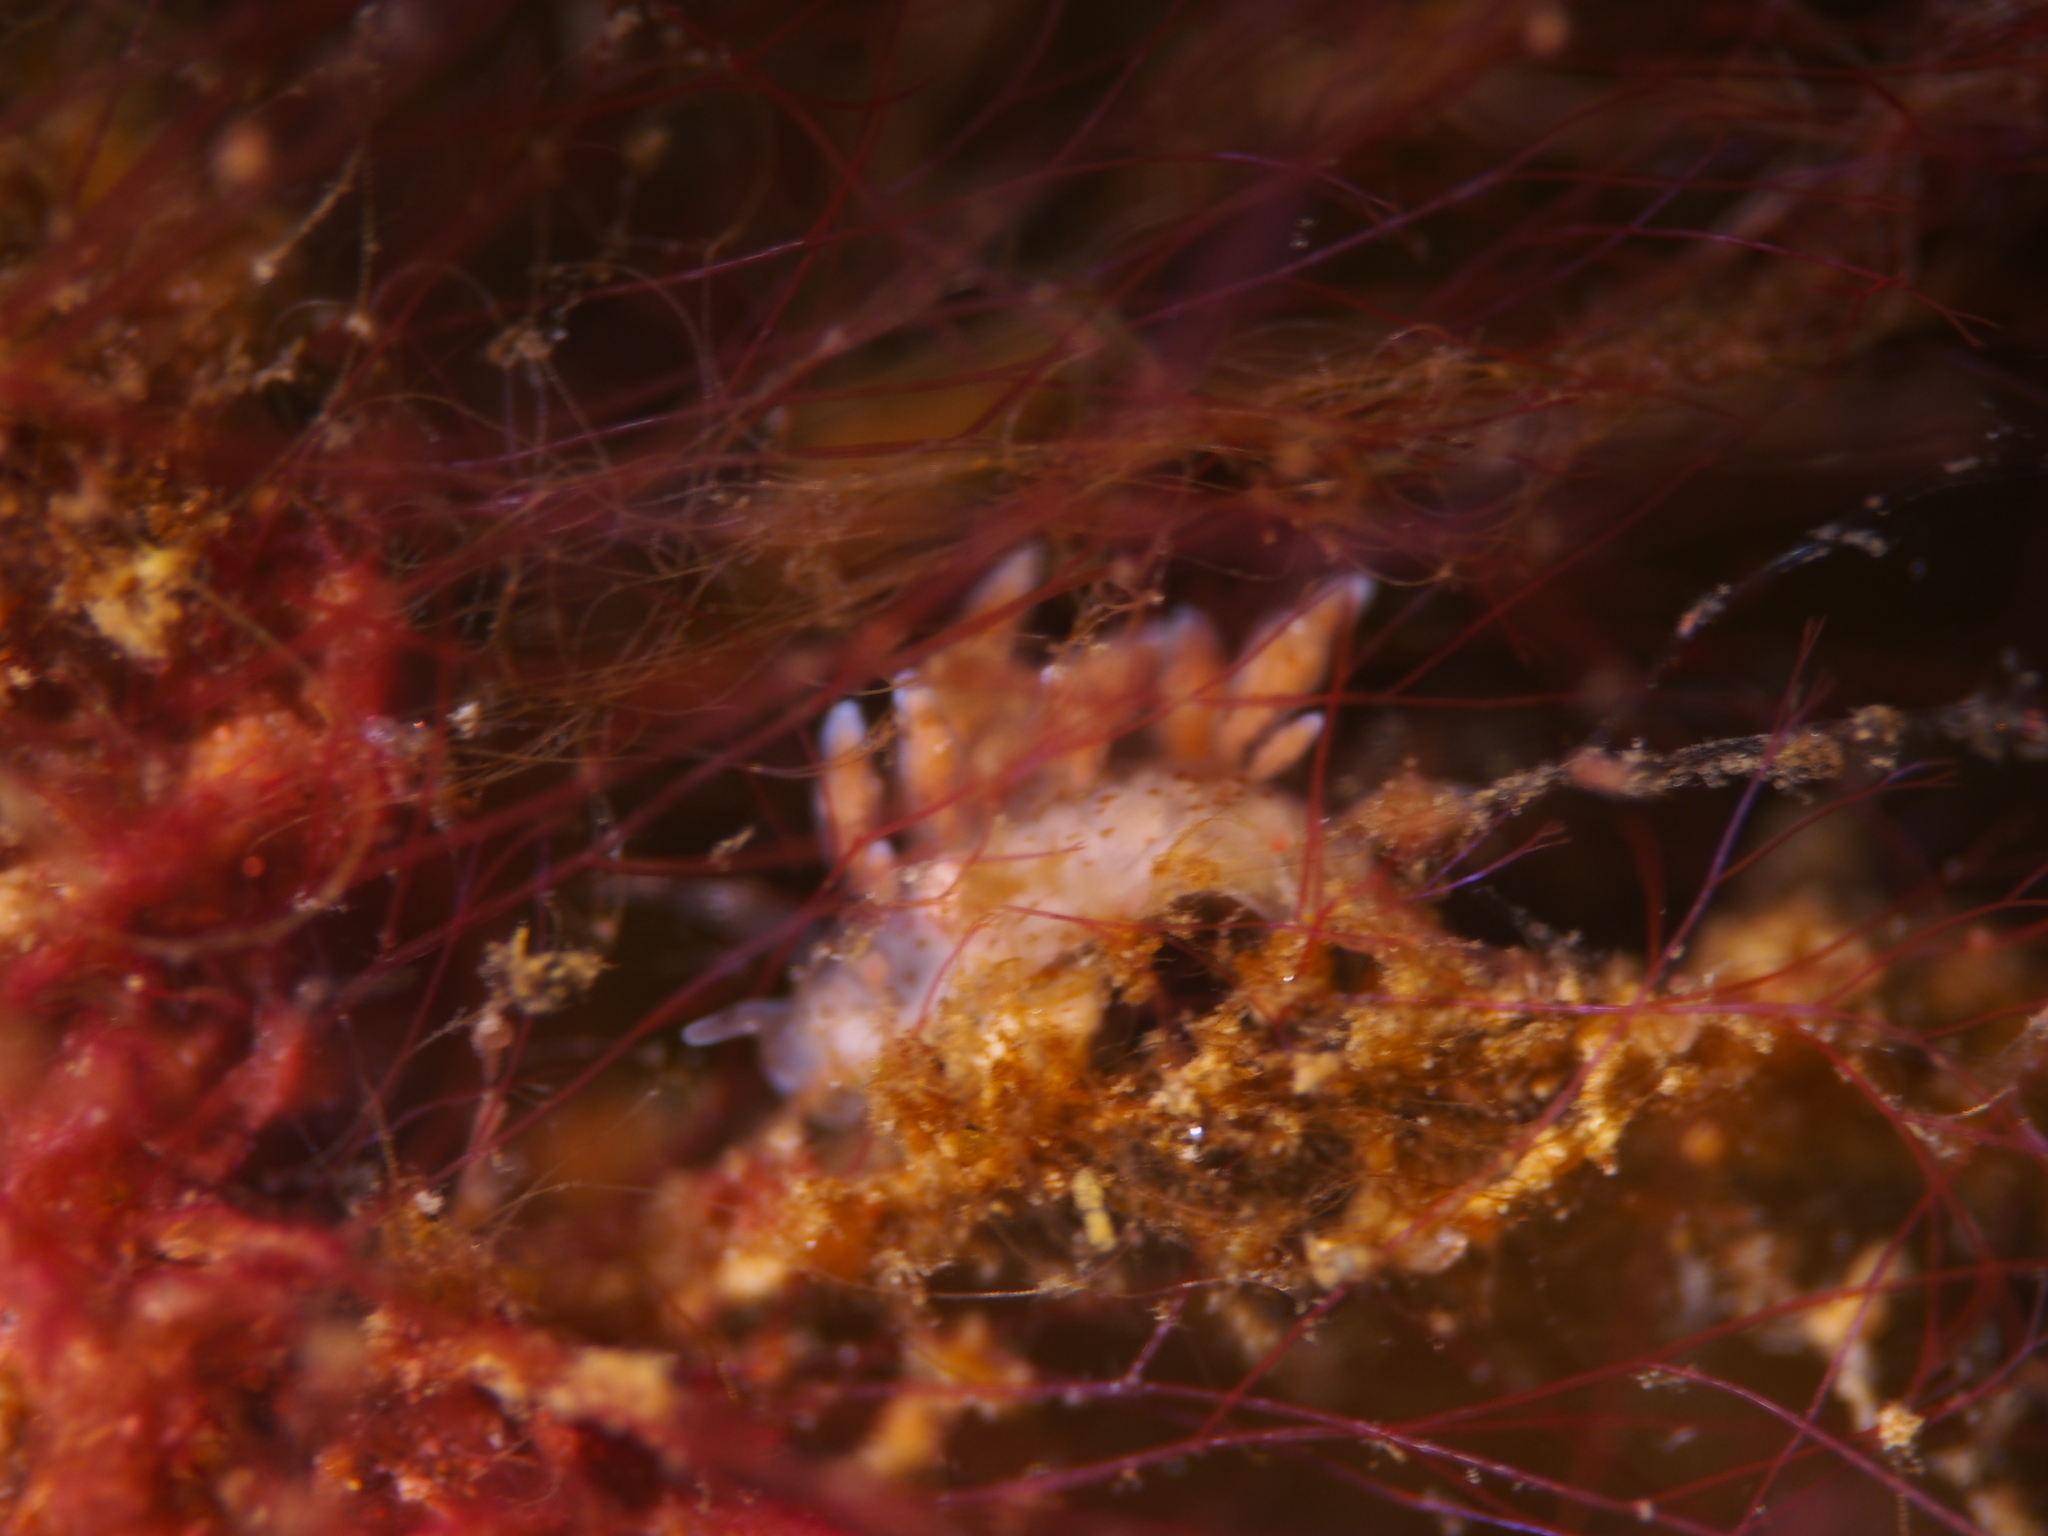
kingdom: Animalia
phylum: Mollusca
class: Gastropoda
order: Nudibranchia
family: Eubranchidae
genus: Eubranchus
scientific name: Eubranchus exiguus
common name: Balloon aeolis
